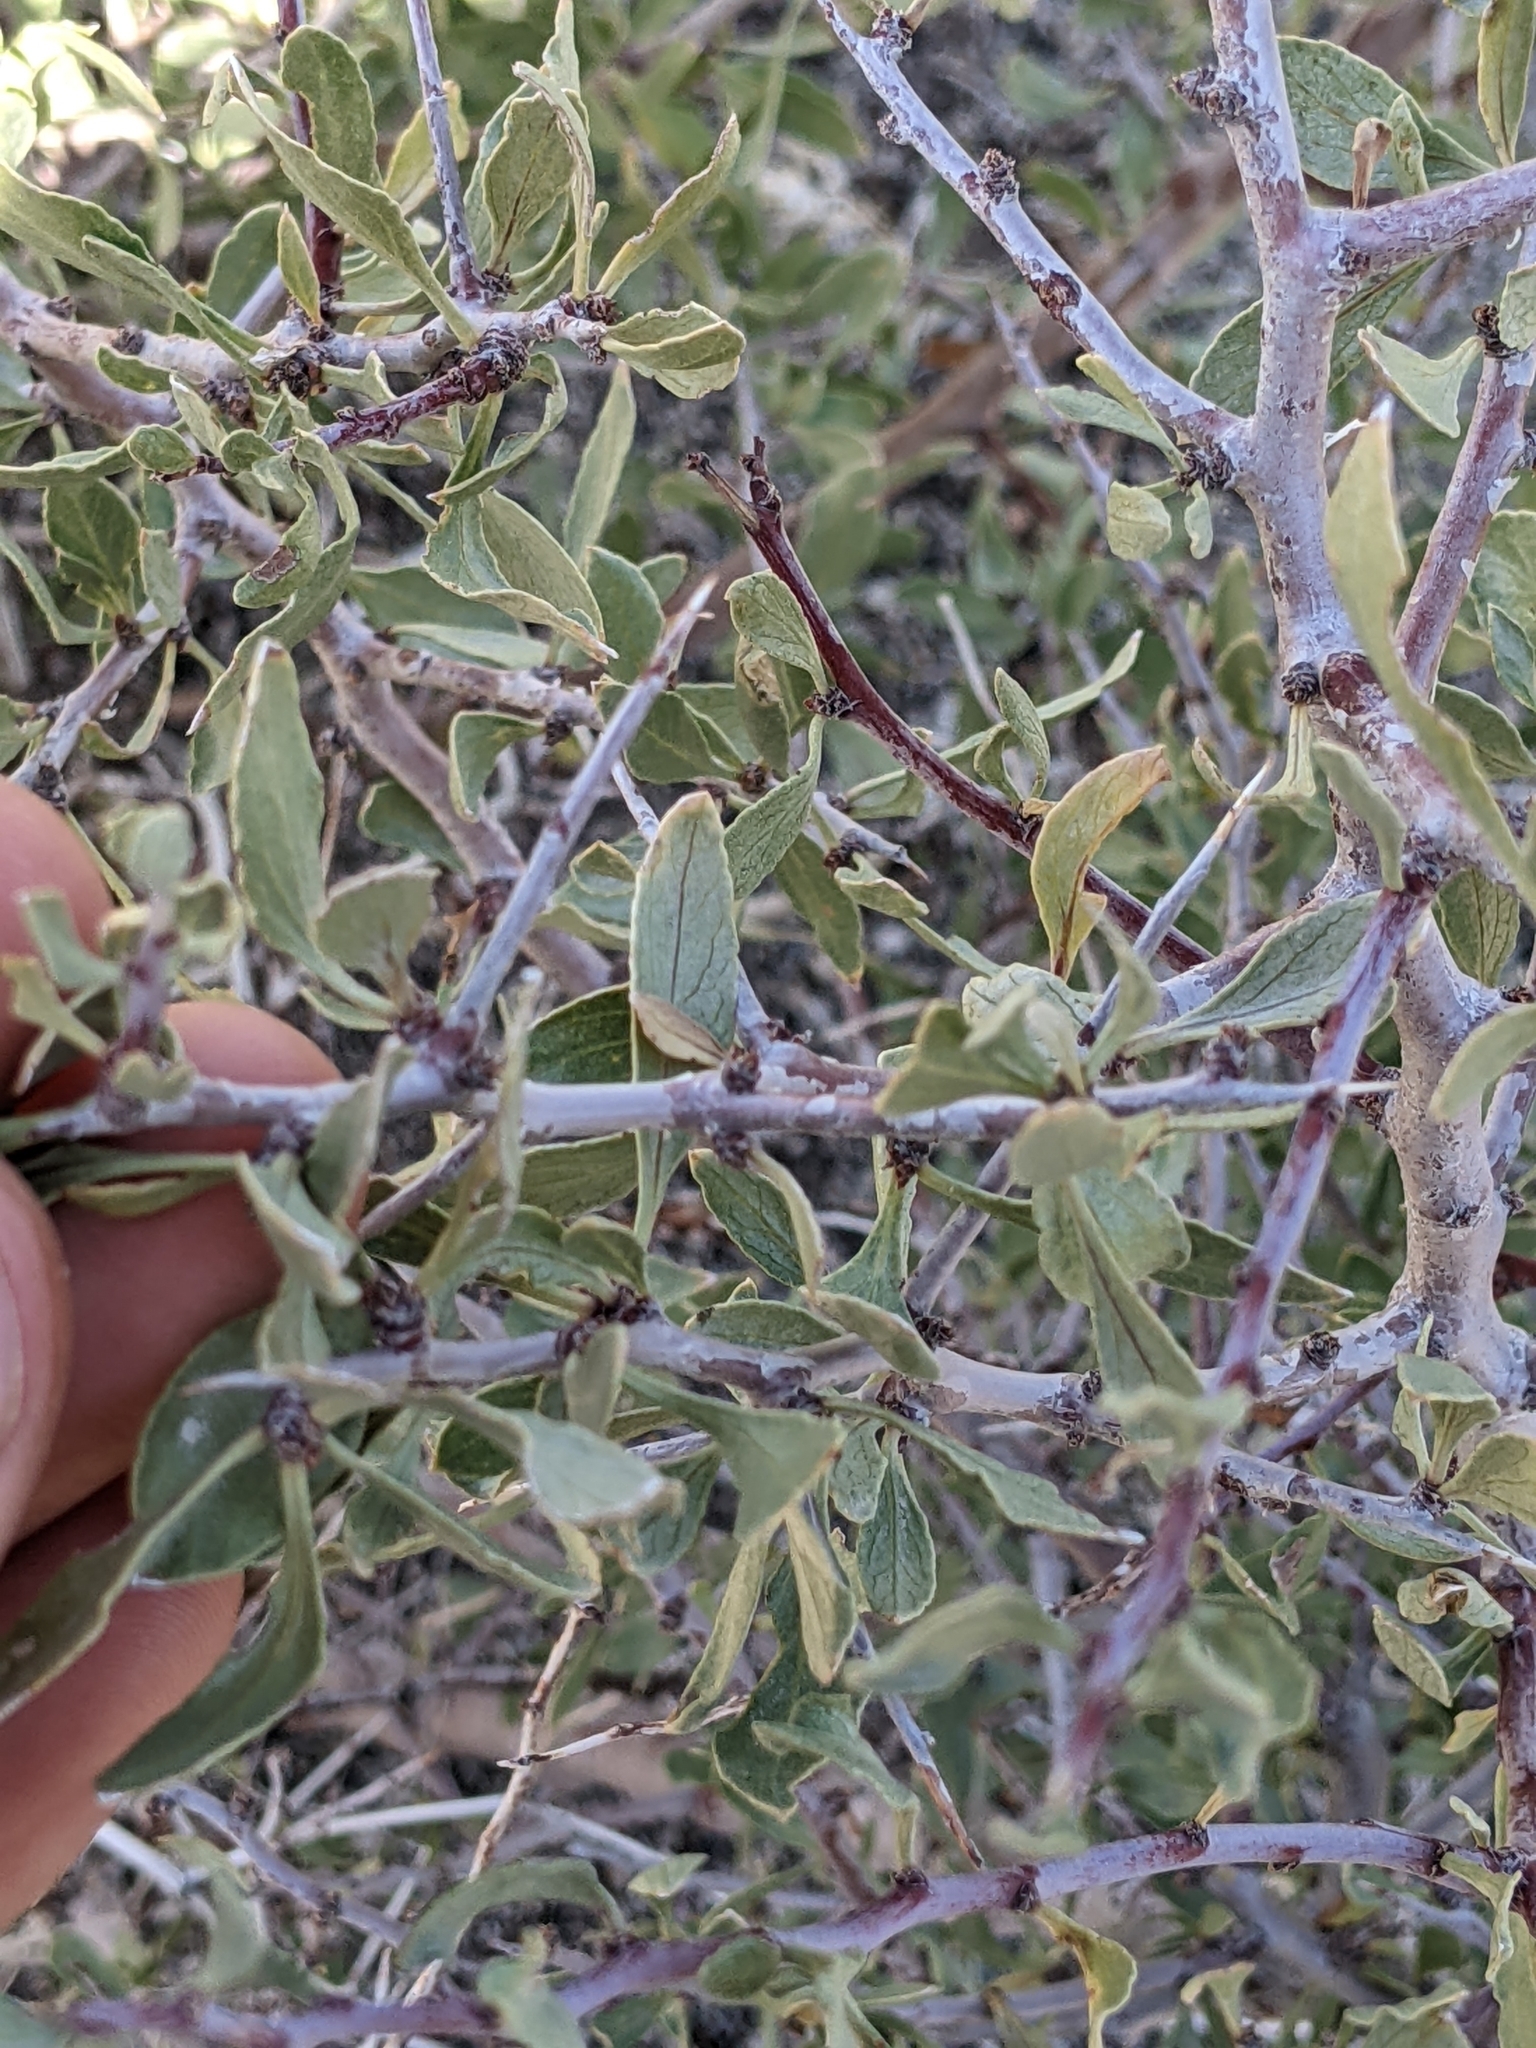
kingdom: Plantae
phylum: Tracheophyta
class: Magnoliopsida
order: Rosales
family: Rosaceae
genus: Prunus
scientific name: Prunus andersonii
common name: Desert peach
